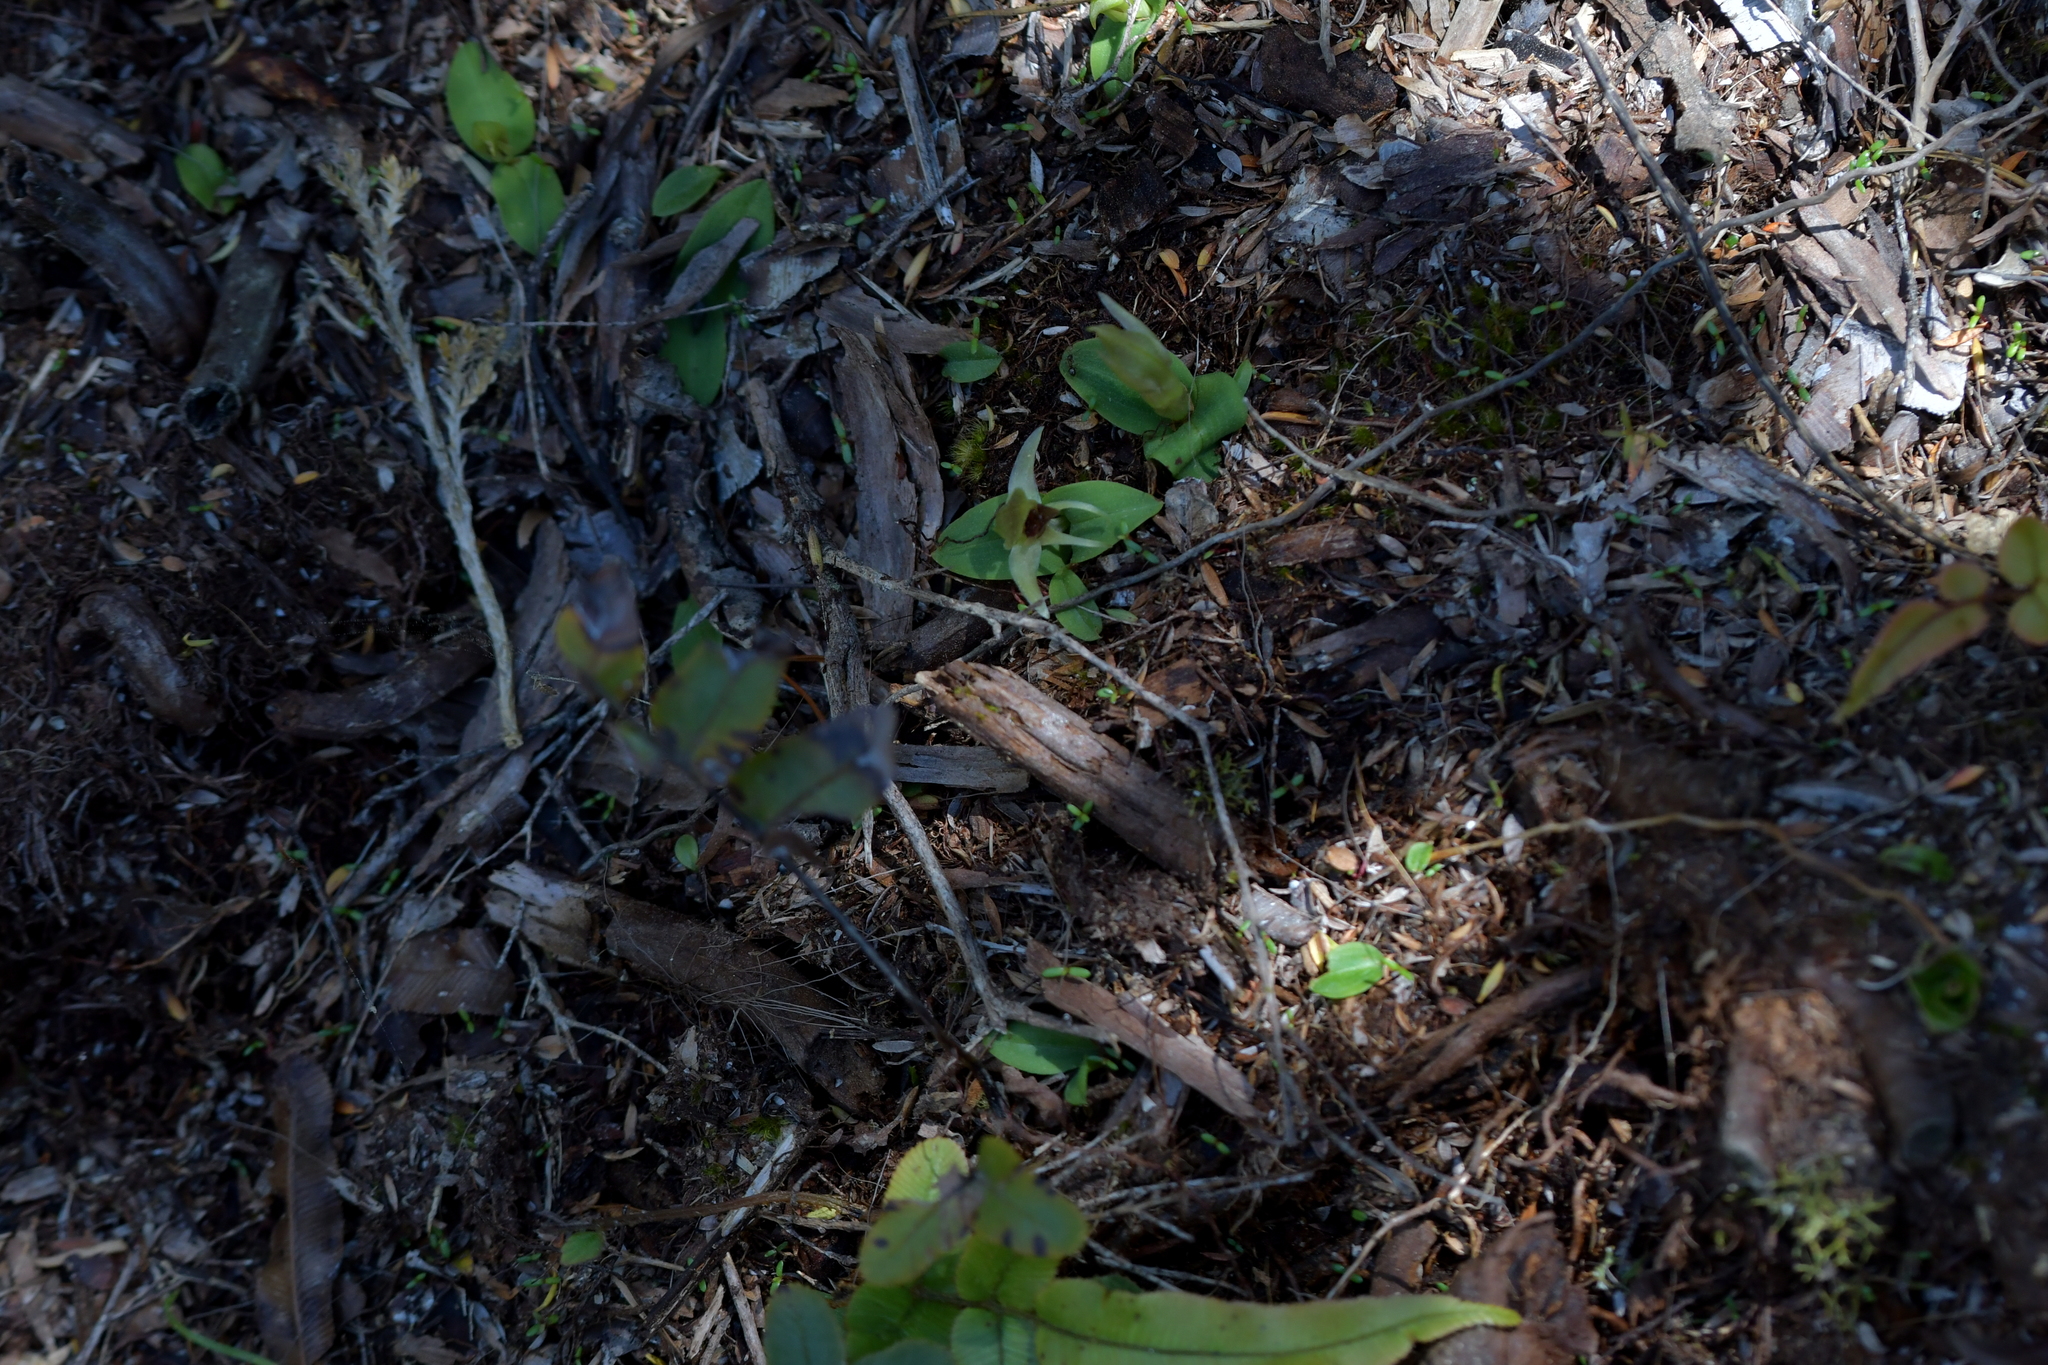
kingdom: Plantae
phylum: Tracheophyta
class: Liliopsida
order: Asparagales
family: Orchidaceae
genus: Chiloglottis
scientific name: Chiloglottis cornuta
